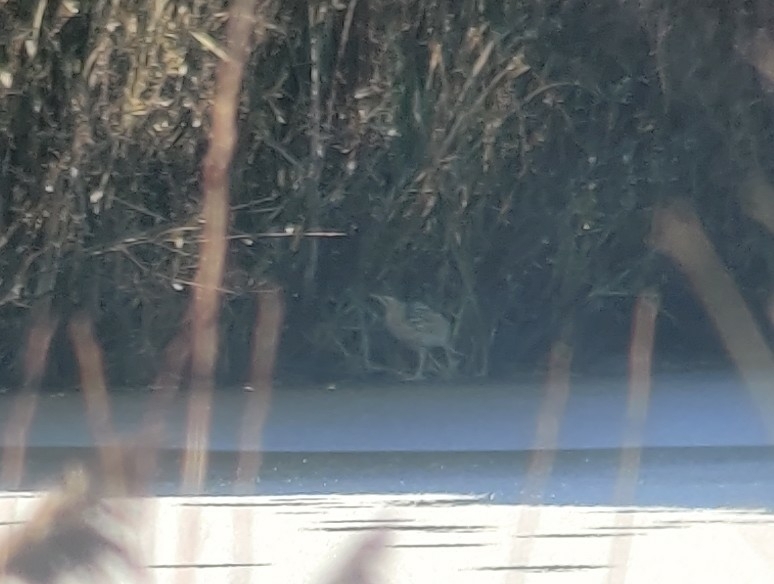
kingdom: Animalia
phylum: Chordata
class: Aves
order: Pelecaniformes
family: Ardeidae
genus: Botaurus
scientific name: Botaurus stellaris
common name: Eurasian bittern
